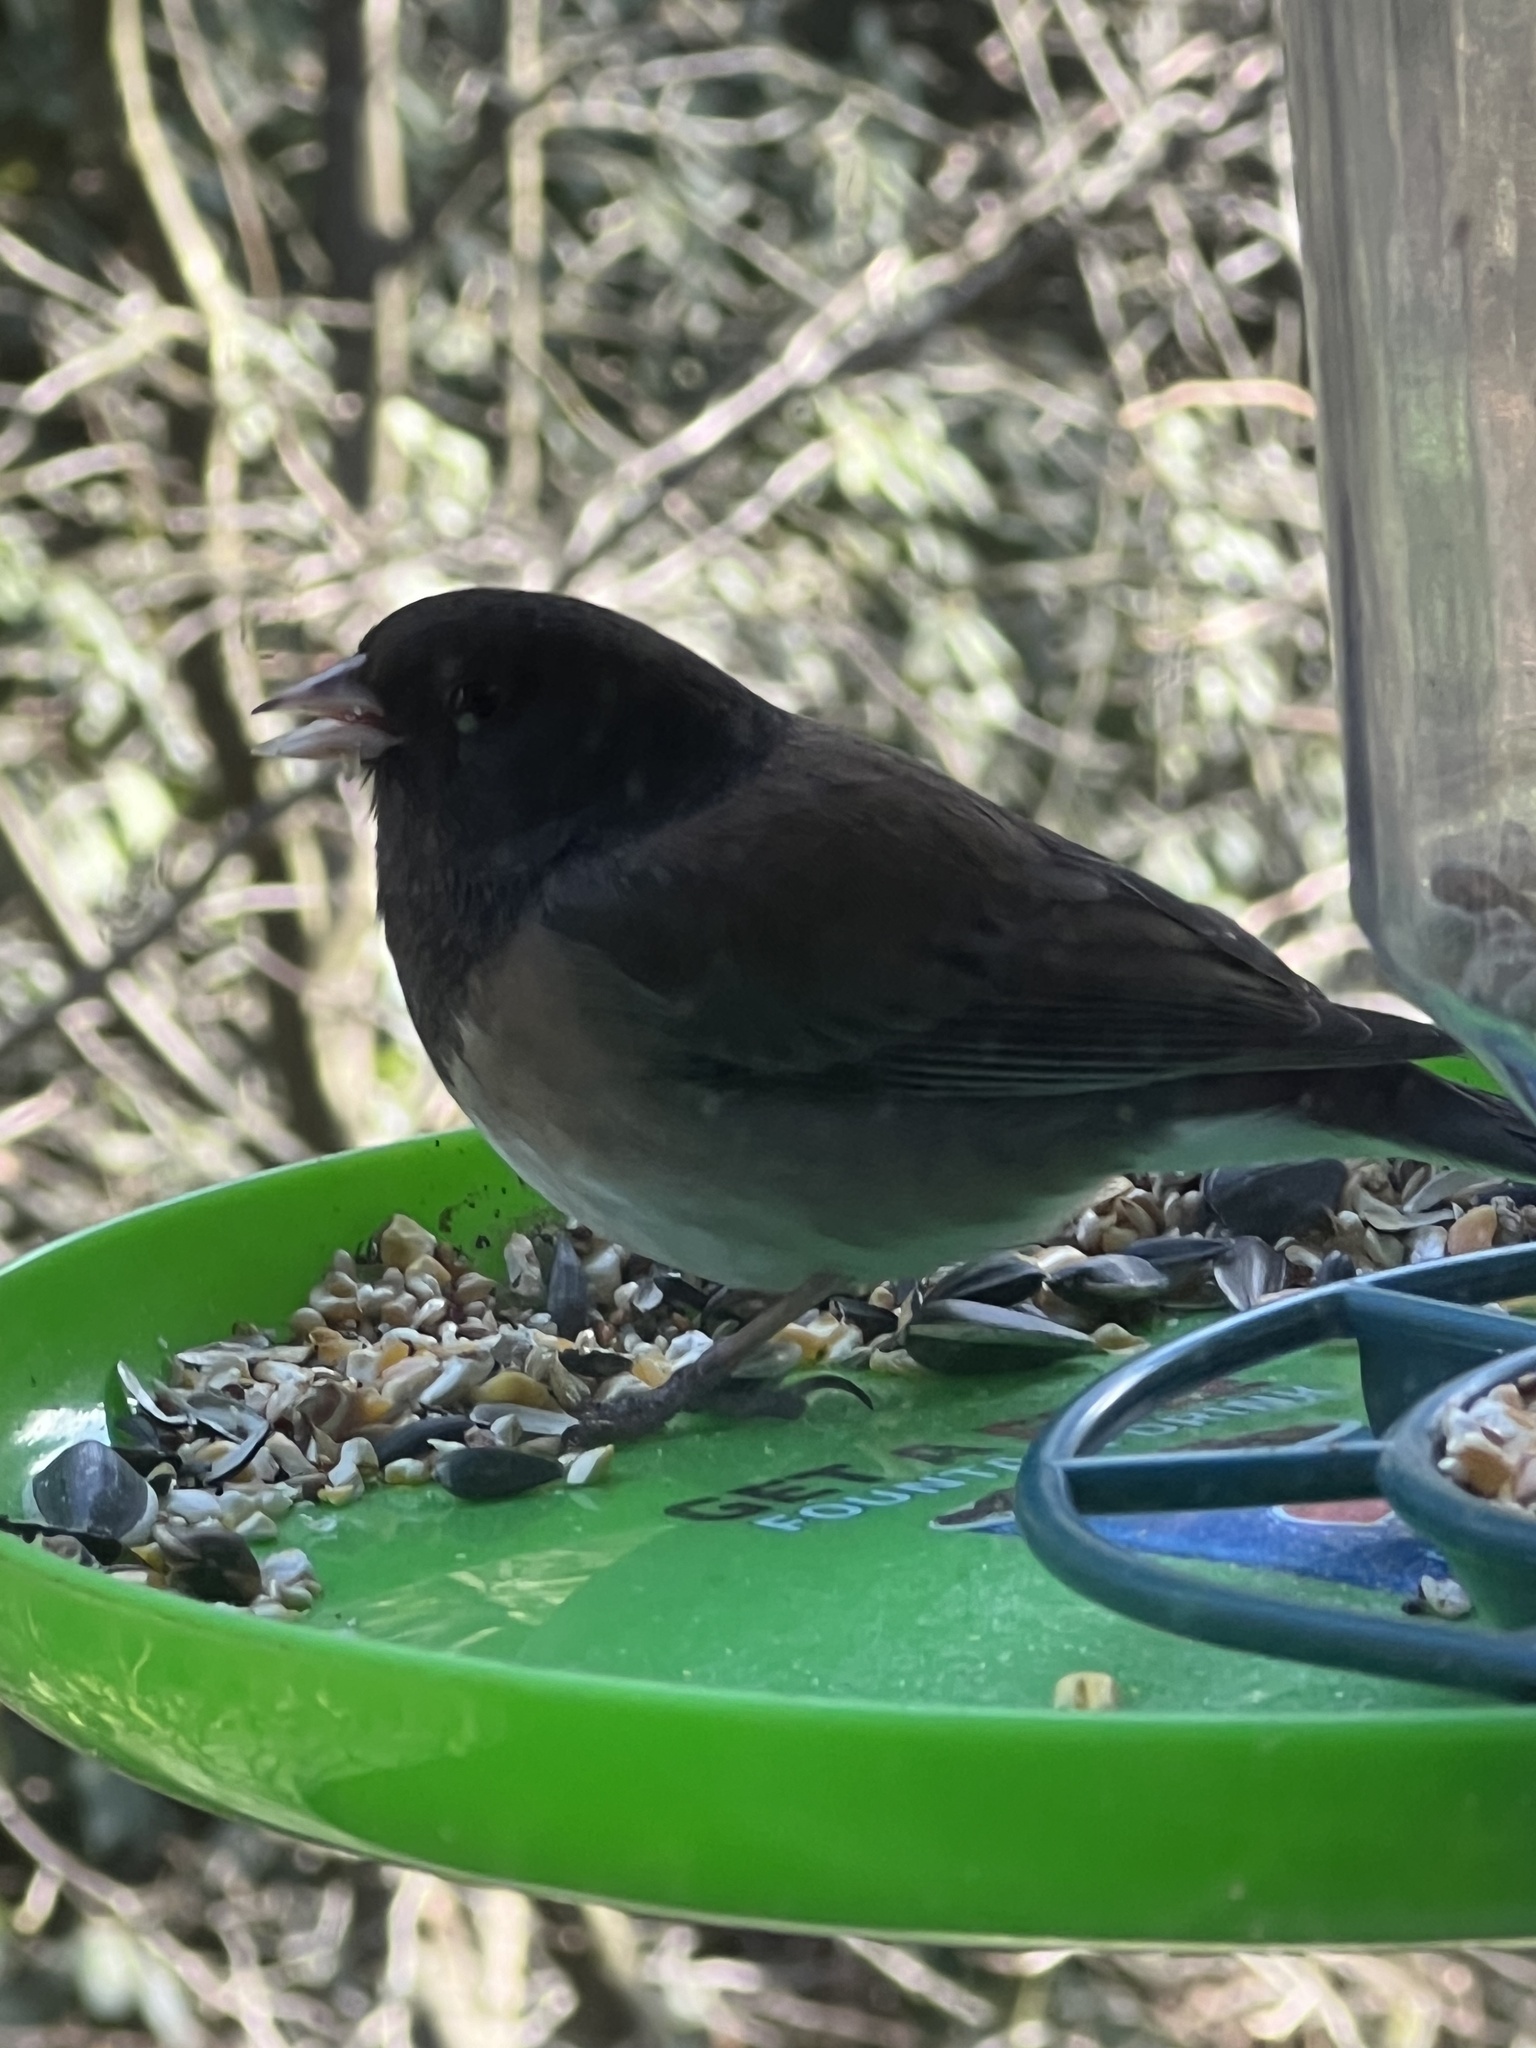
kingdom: Animalia
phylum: Chordata
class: Aves
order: Passeriformes
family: Passerellidae
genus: Junco
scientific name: Junco hyemalis
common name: Dark-eyed junco
